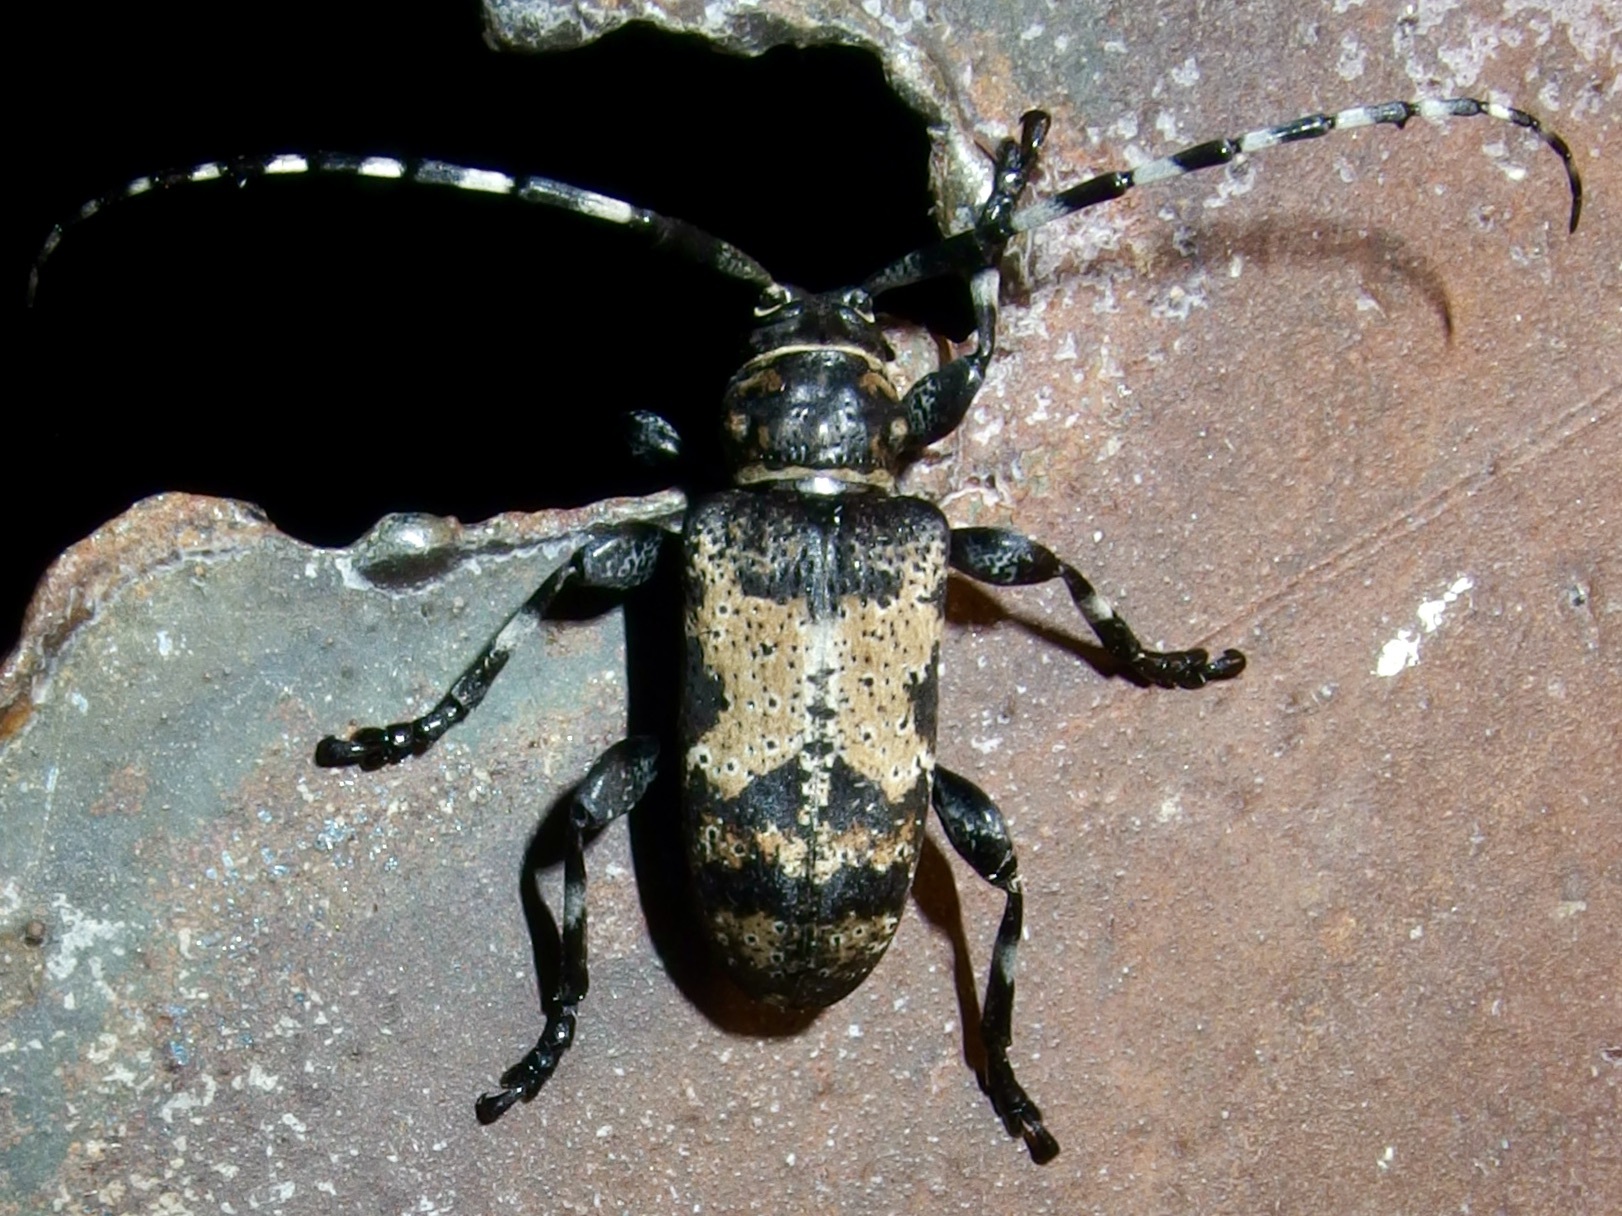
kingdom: Animalia
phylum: Arthropoda
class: Insecta
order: Coleoptera
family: Cerambycidae
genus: Coenopoeus
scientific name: Coenopoeus palmeri
